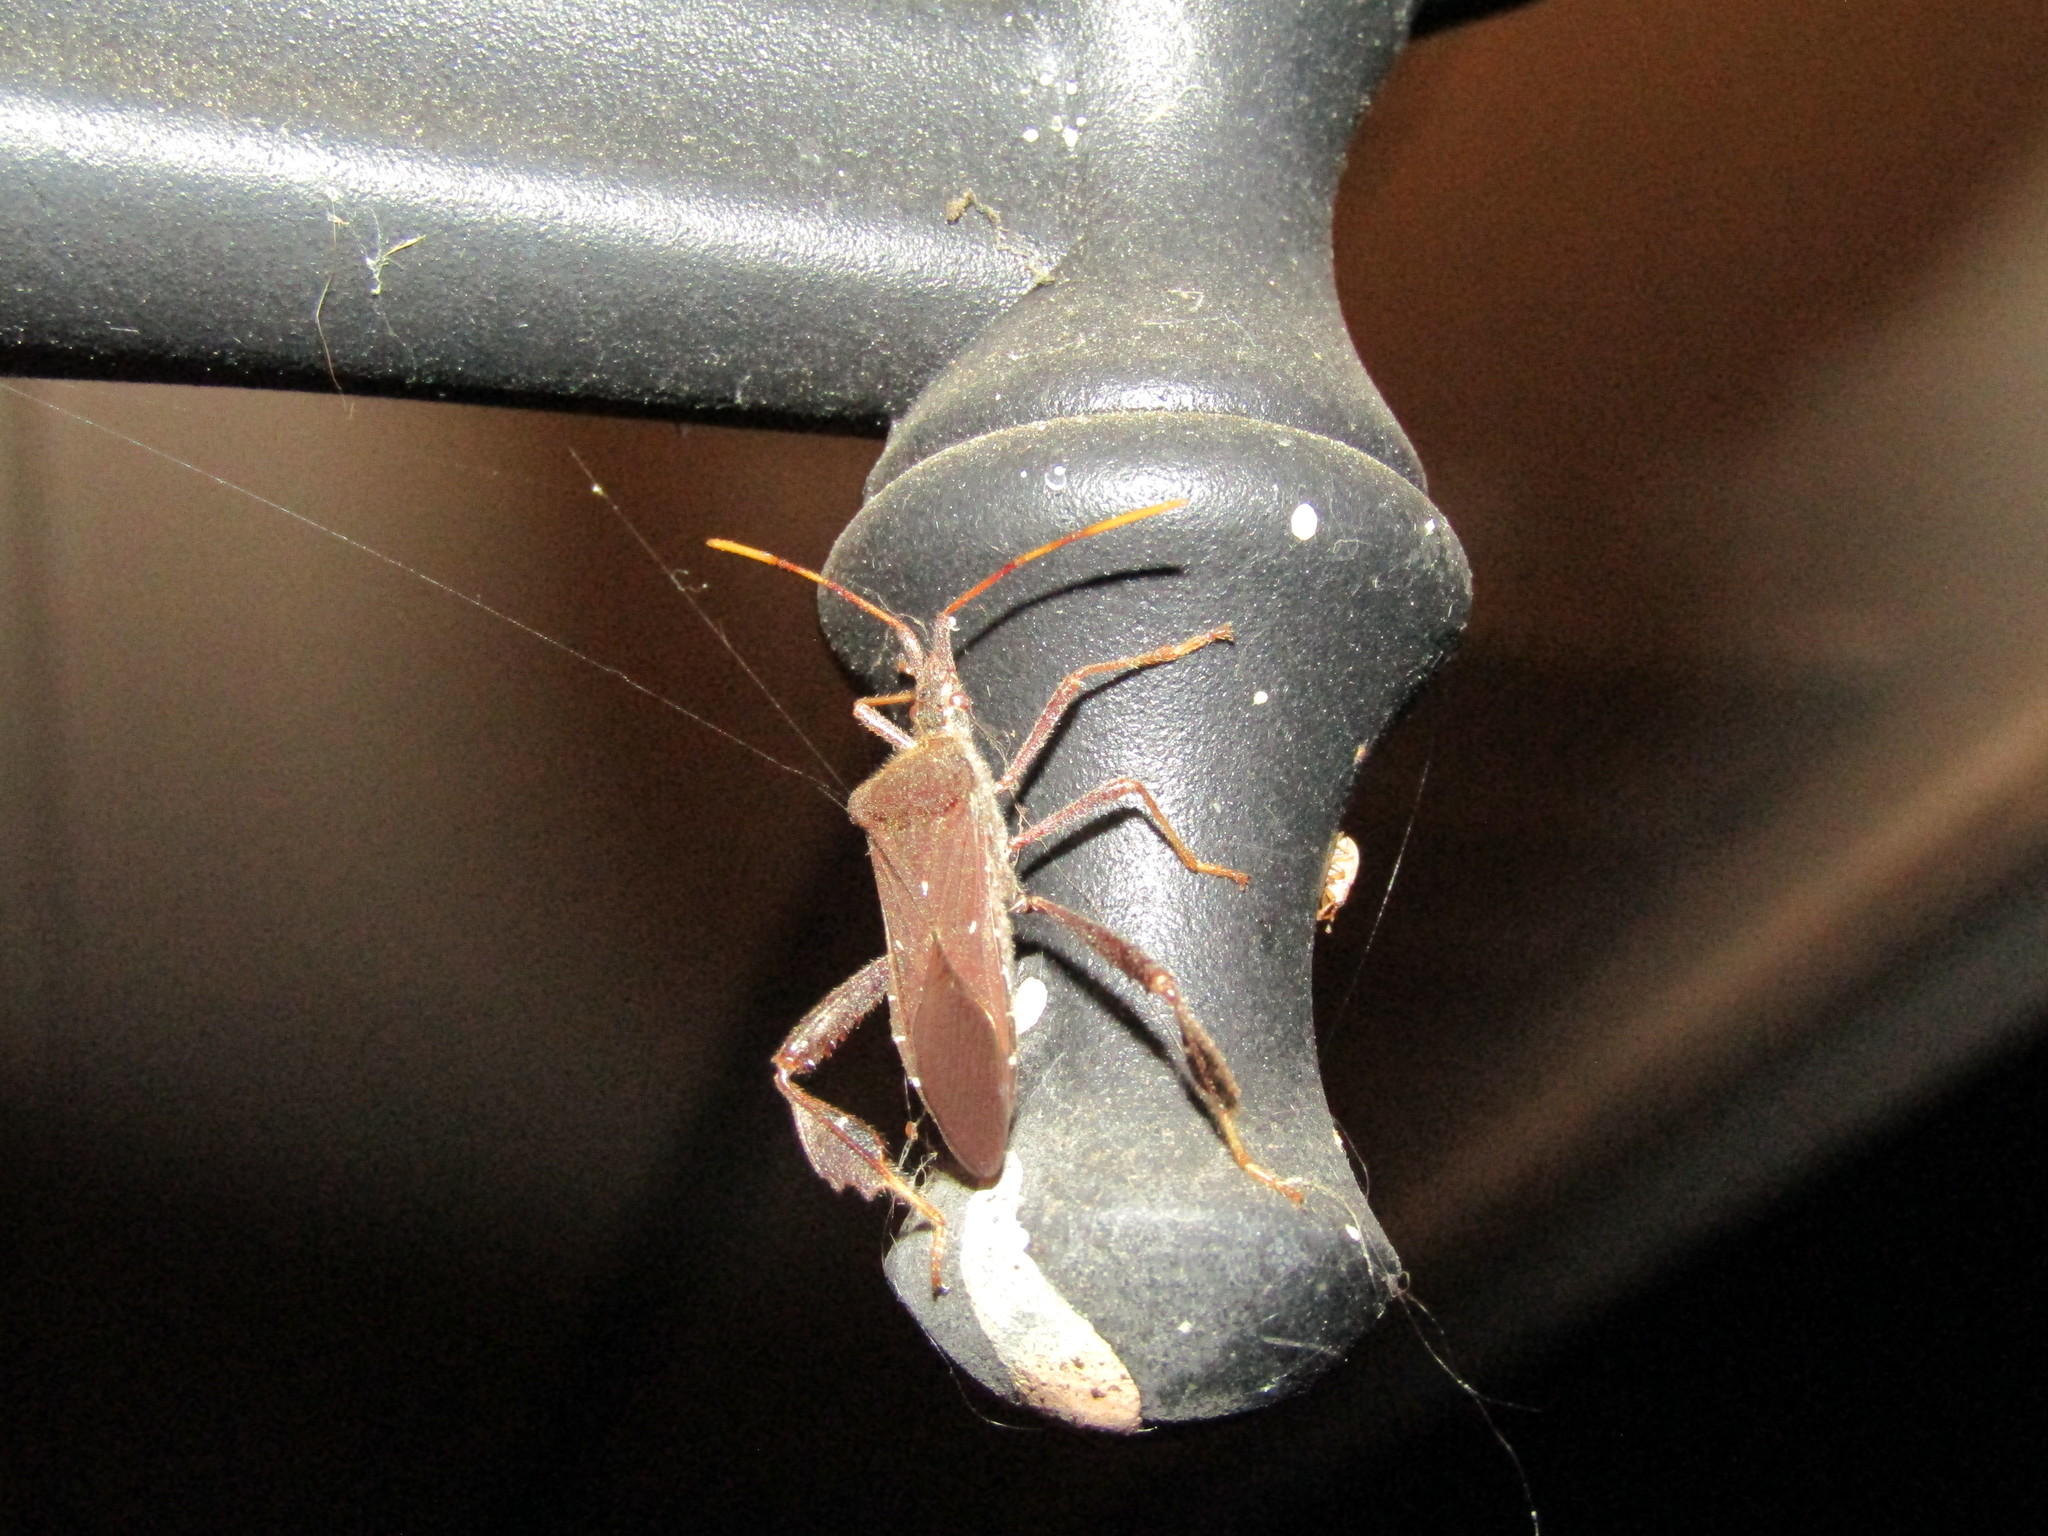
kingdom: Animalia
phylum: Arthropoda
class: Insecta
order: Hemiptera
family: Coreidae
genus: Leptoglossus
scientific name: Leptoglossus oppositus
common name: Northern leaf-footed bug
